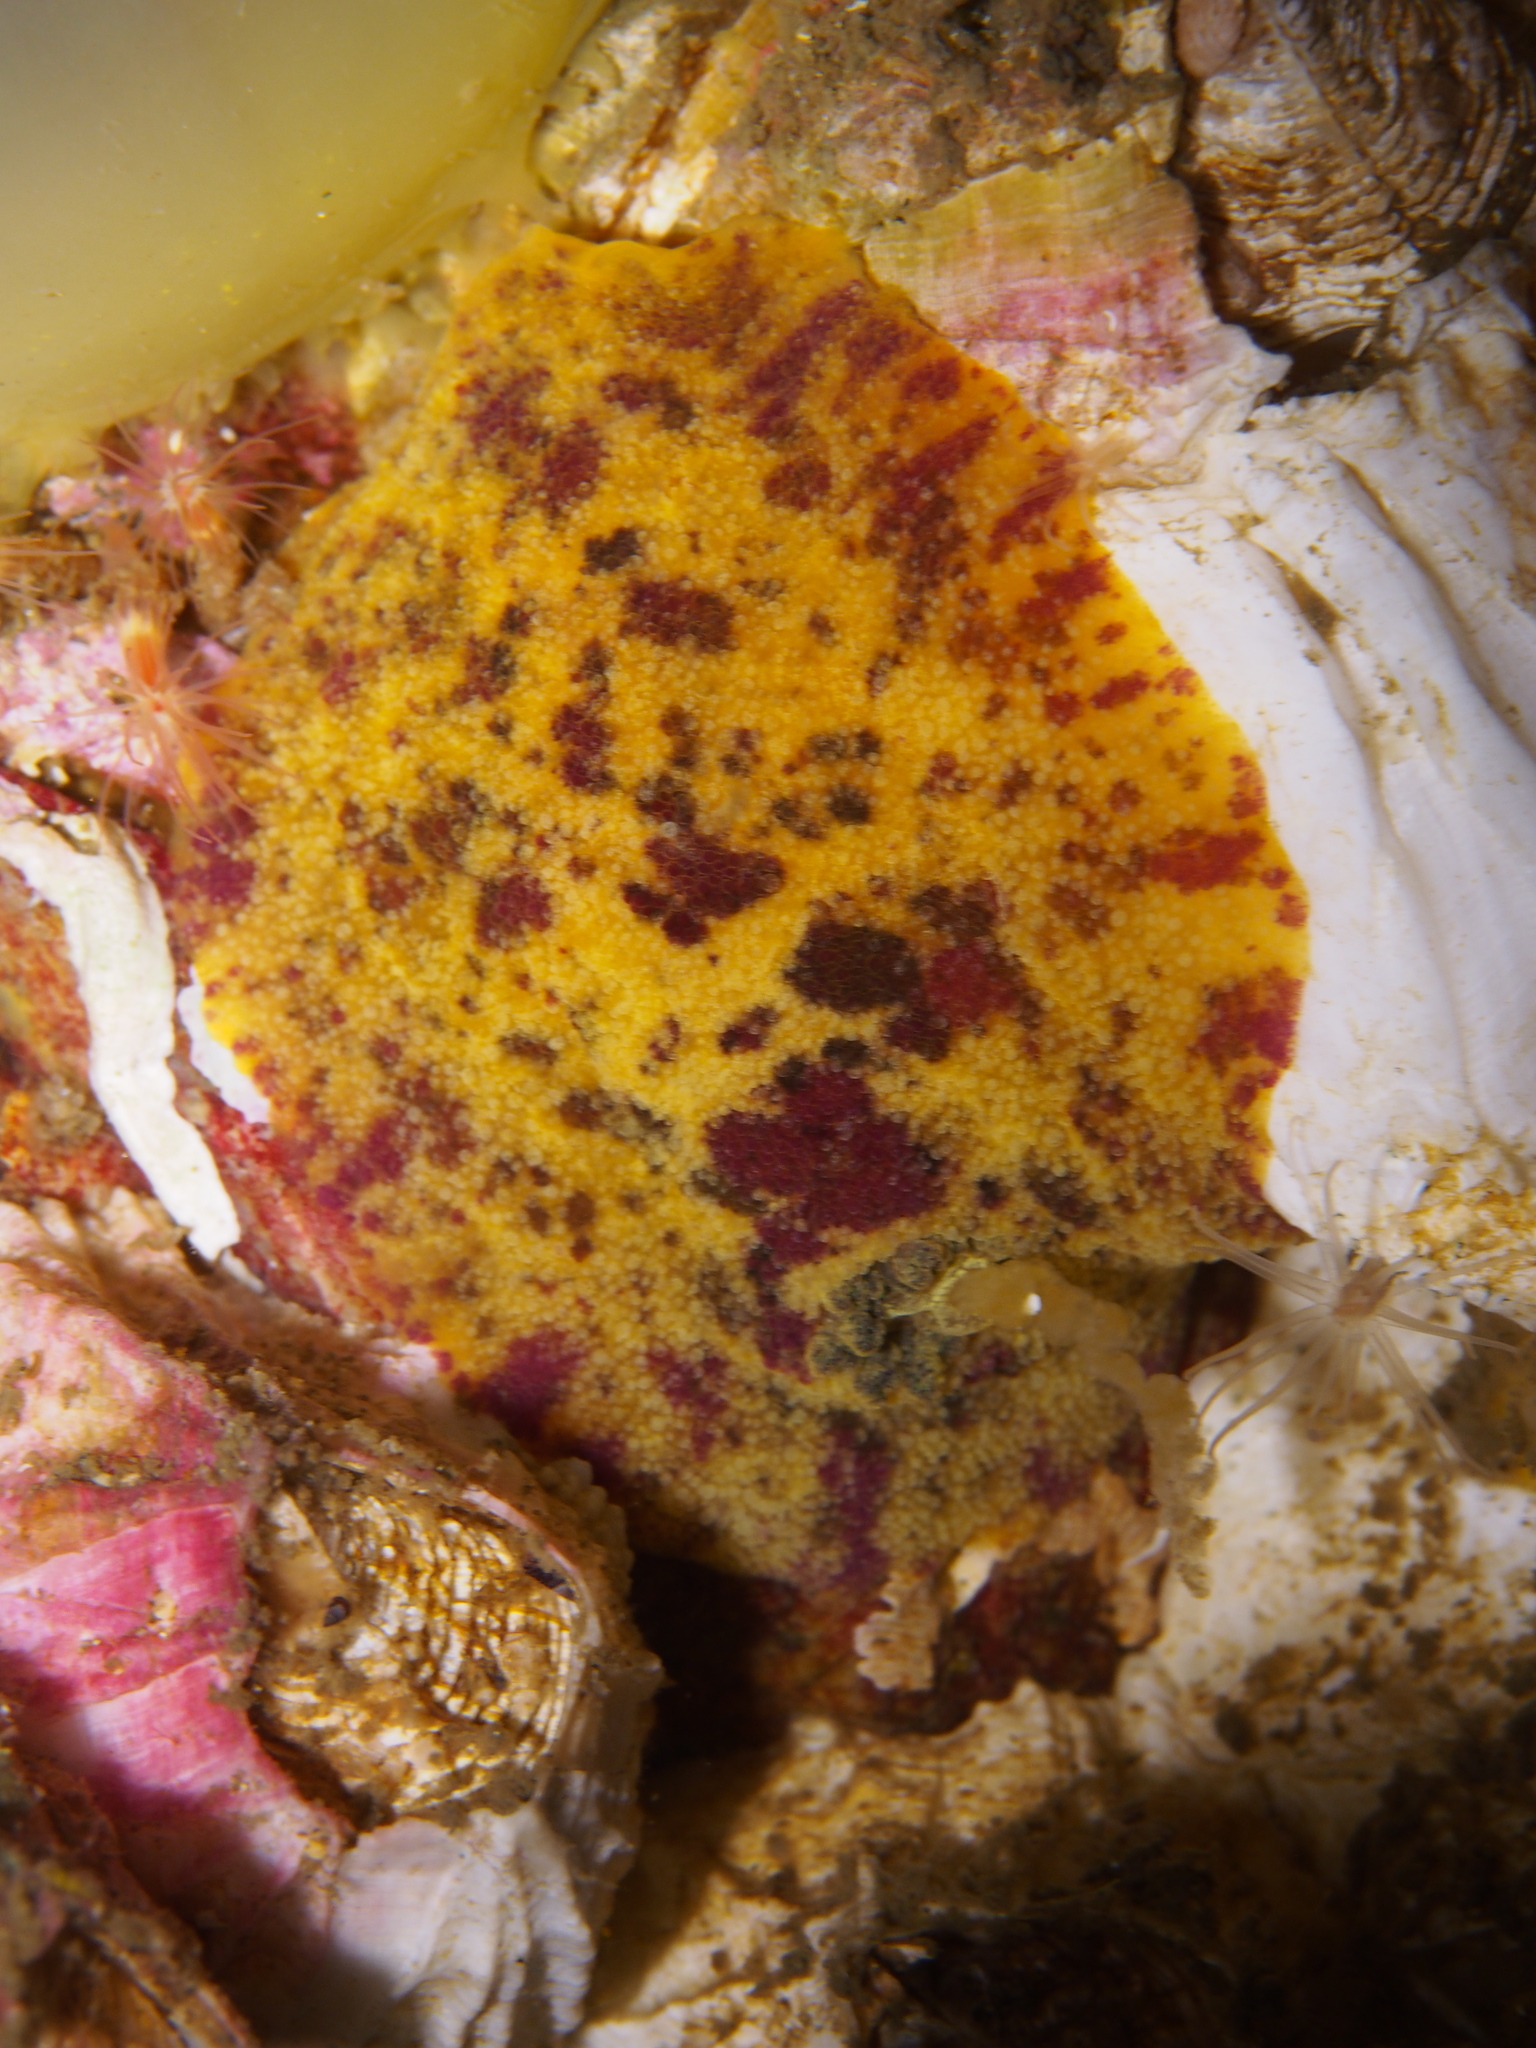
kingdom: Animalia
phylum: Mollusca
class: Gastropoda
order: Nudibranchia
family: Dorididae
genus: Doris
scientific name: Doris pseudoargus
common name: Sea lemon
